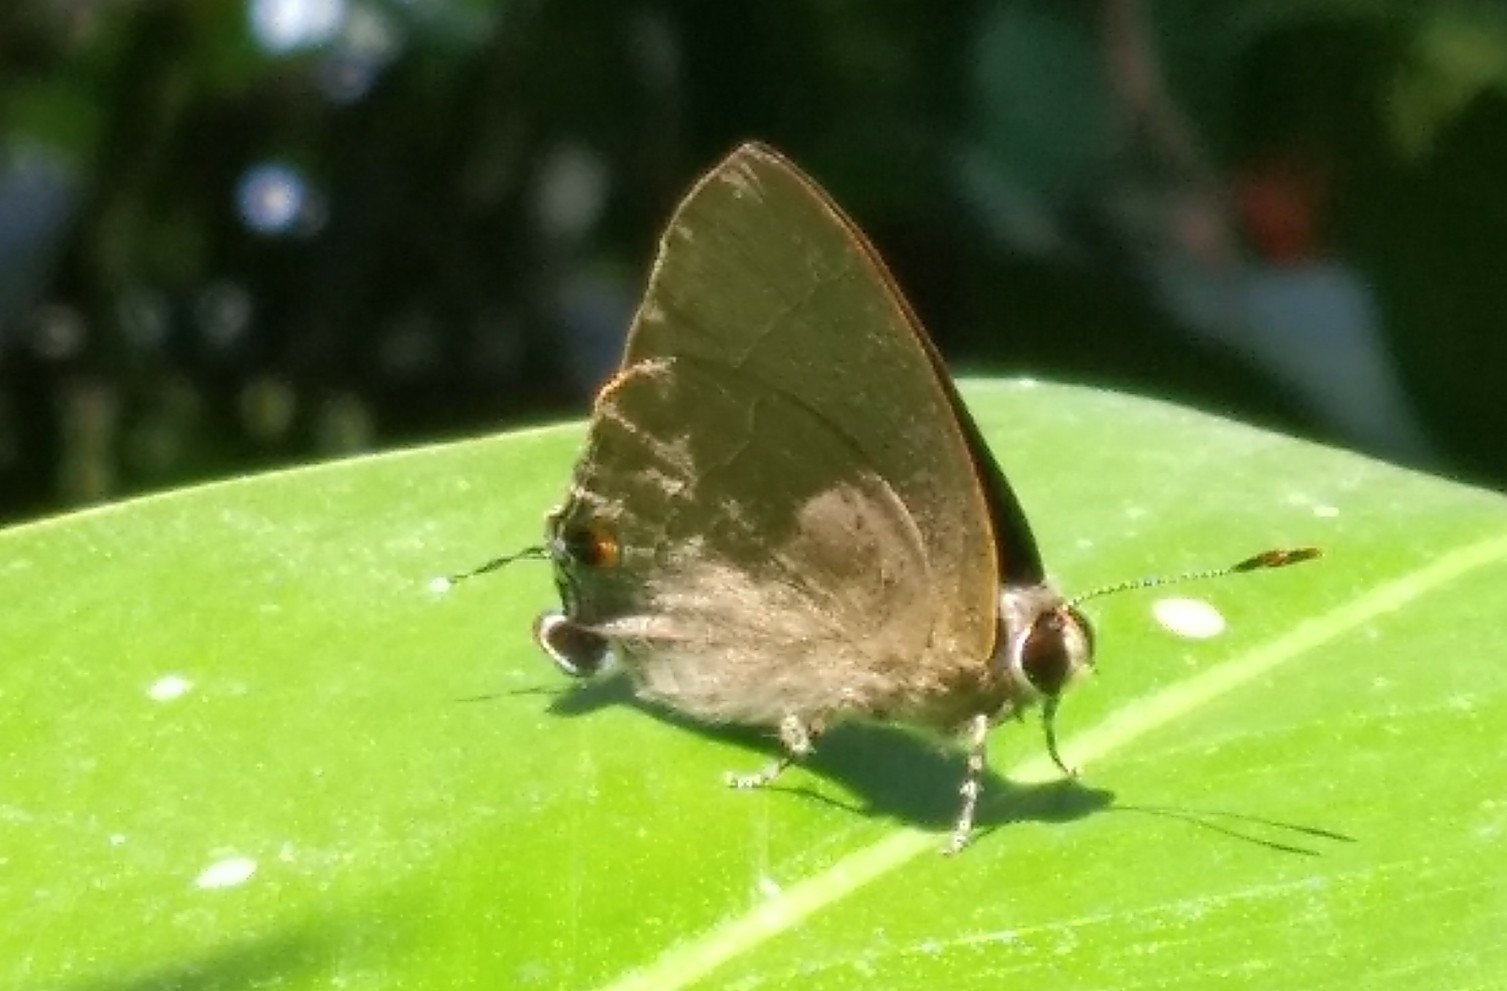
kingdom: Animalia
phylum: Arthropoda
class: Insecta
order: Lepidoptera
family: Lycaenidae
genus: Rapala
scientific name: Rapala manea
